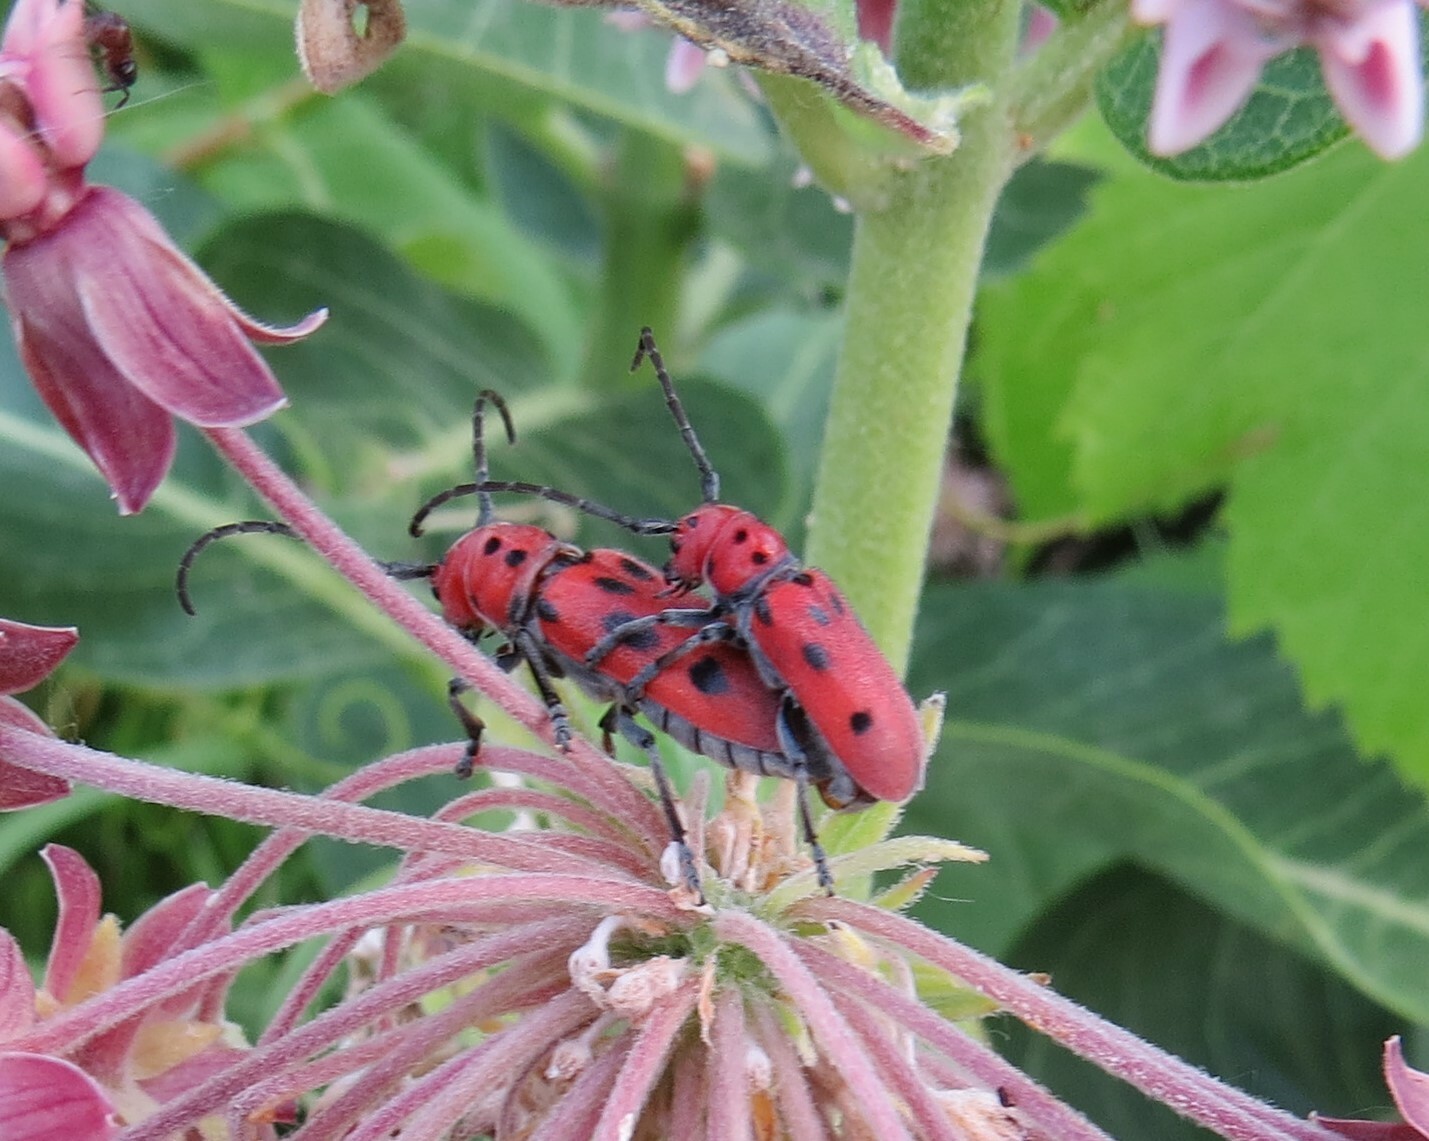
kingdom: Animalia
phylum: Arthropoda
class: Insecta
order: Coleoptera
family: Cerambycidae
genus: Tetraopes
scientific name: Tetraopes tetrophthalmus
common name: Red milkweed beetle
